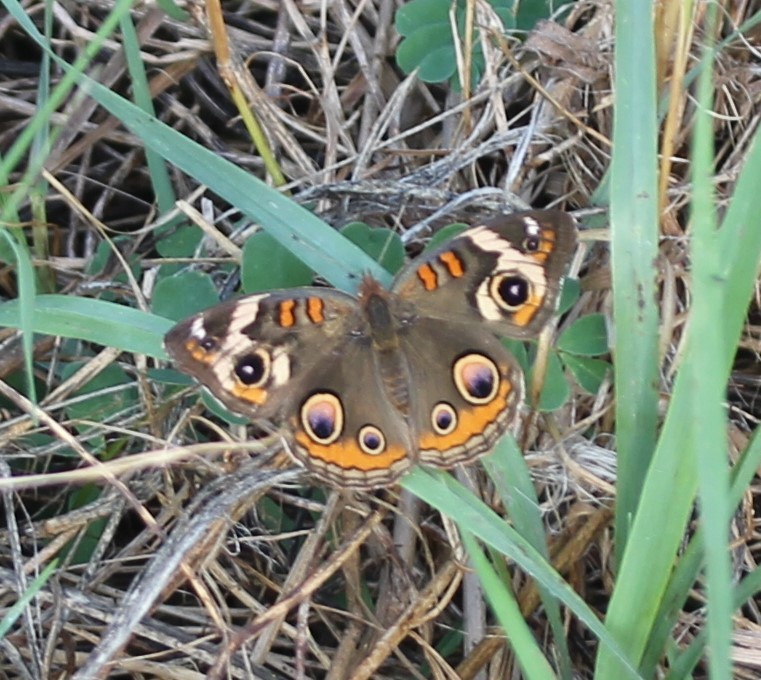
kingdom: Animalia
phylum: Arthropoda
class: Insecta
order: Lepidoptera
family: Nymphalidae
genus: Junonia
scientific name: Junonia coenia
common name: Common buckeye
